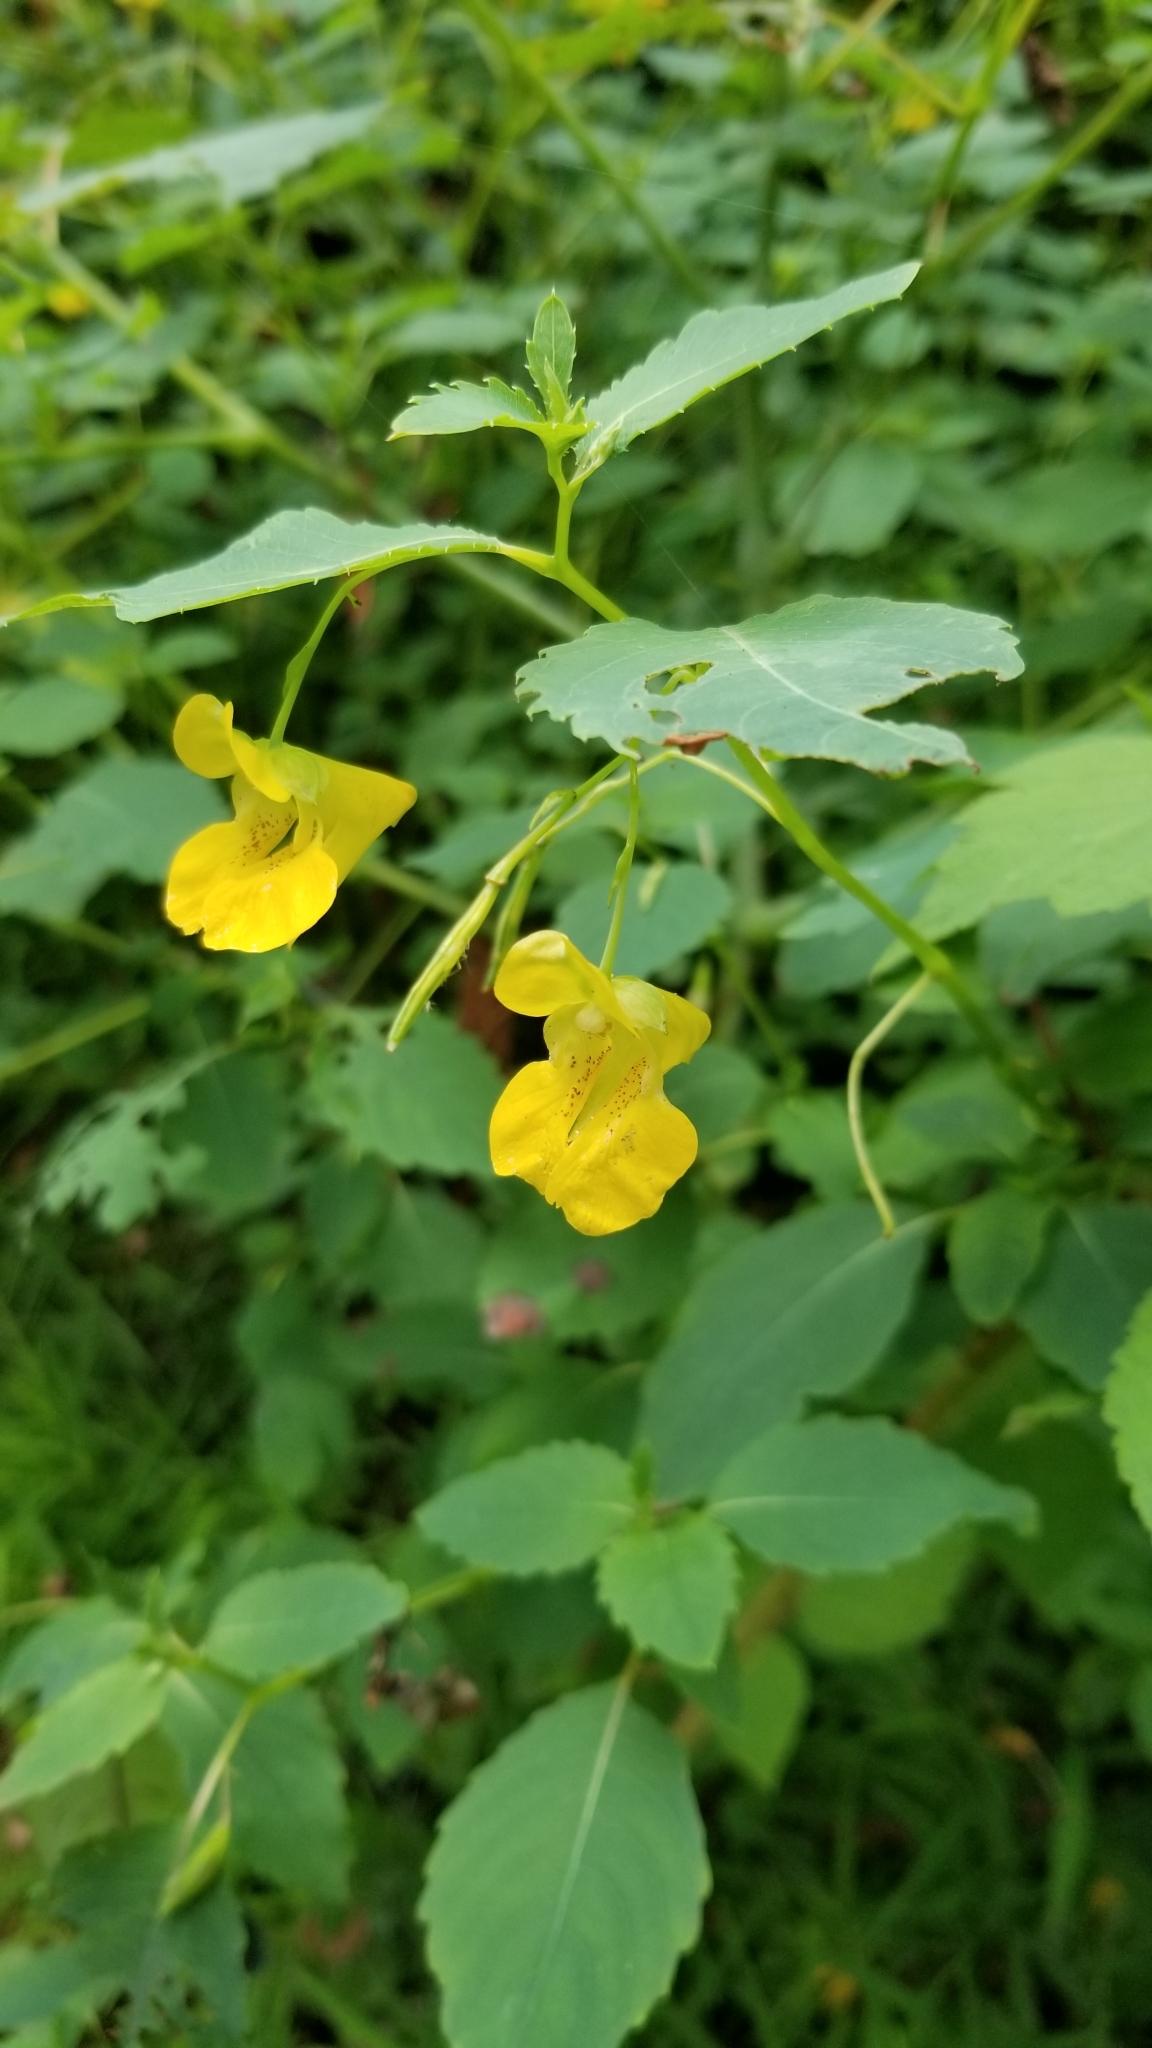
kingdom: Plantae
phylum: Tracheophyta
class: Magnoliopsida
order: Ericales
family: Balsaminaceae
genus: Impatiens
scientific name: Impatiens pallida
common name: Pale snapweed
